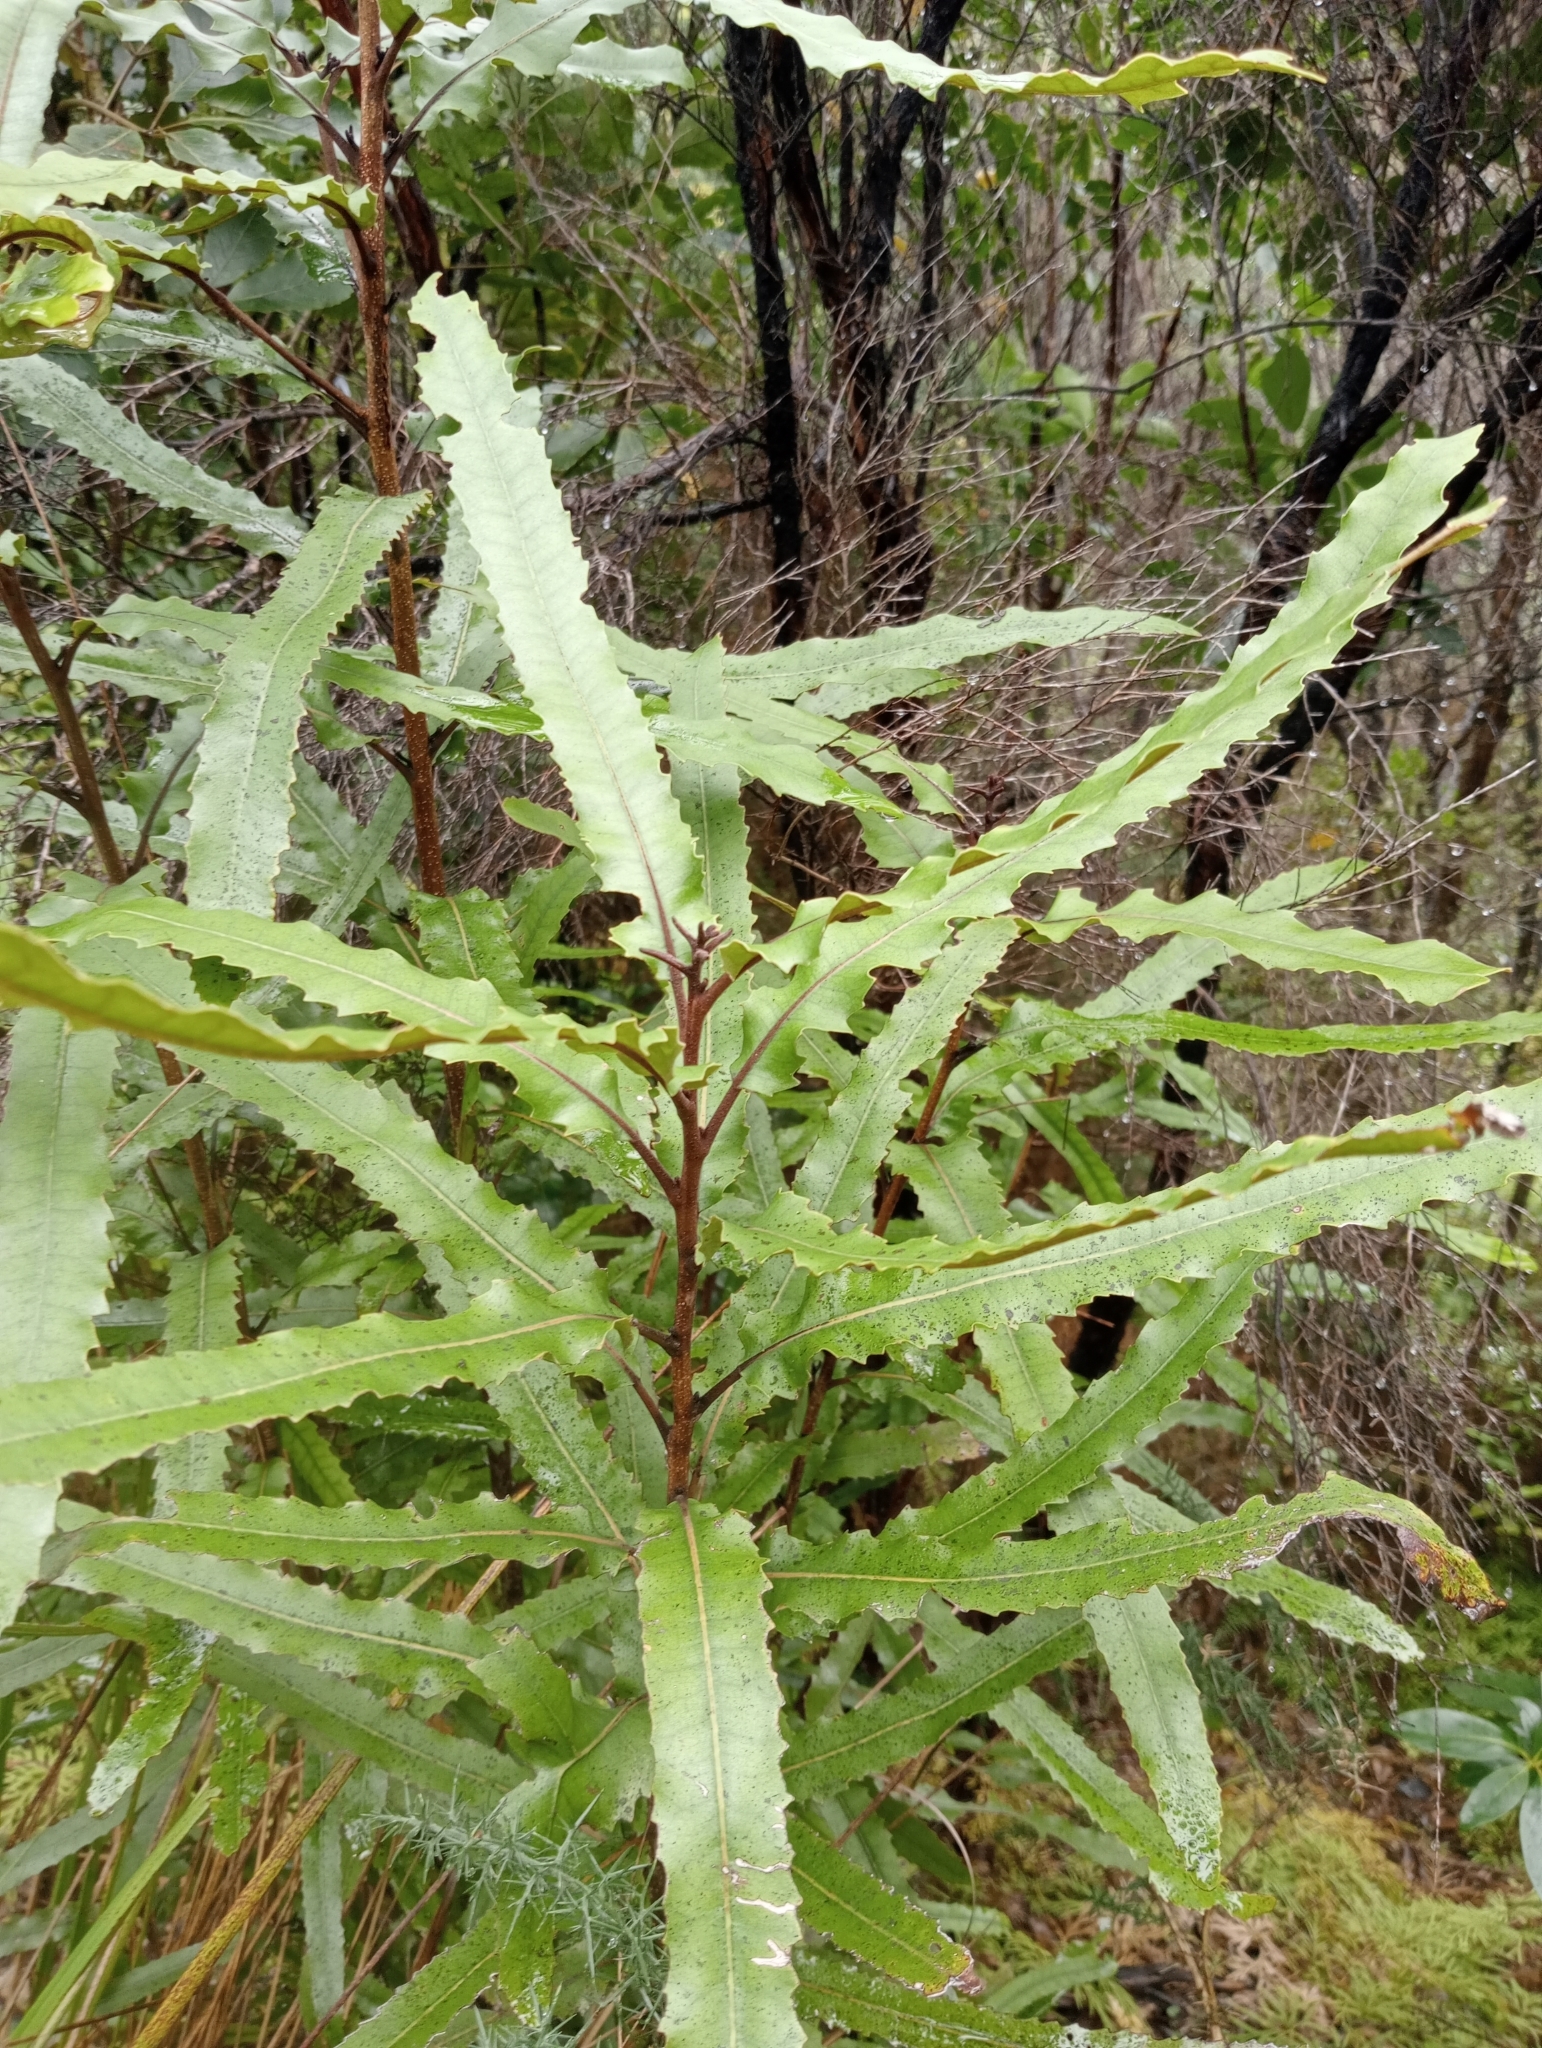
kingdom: Plantae
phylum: Tracheophyta
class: Magnoliopsida
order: Proteales
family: Proteaceae
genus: Knightia
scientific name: Knightia excelsa
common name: New zealand-honeysuckle
